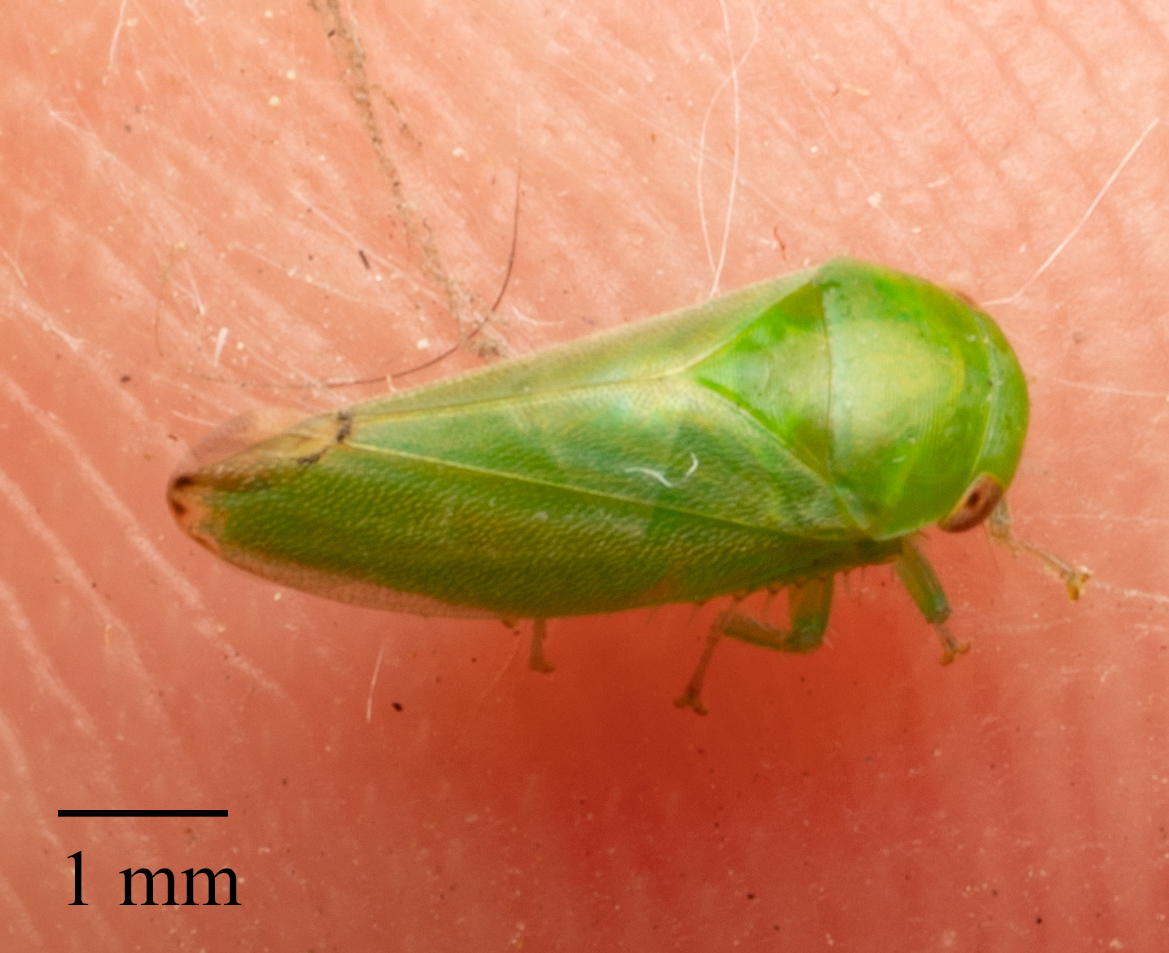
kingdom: Animalia
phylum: Arthropoda
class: Insecta
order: Hemiptera
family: Cicadellidae
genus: Stragania
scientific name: Stragania apicalis
